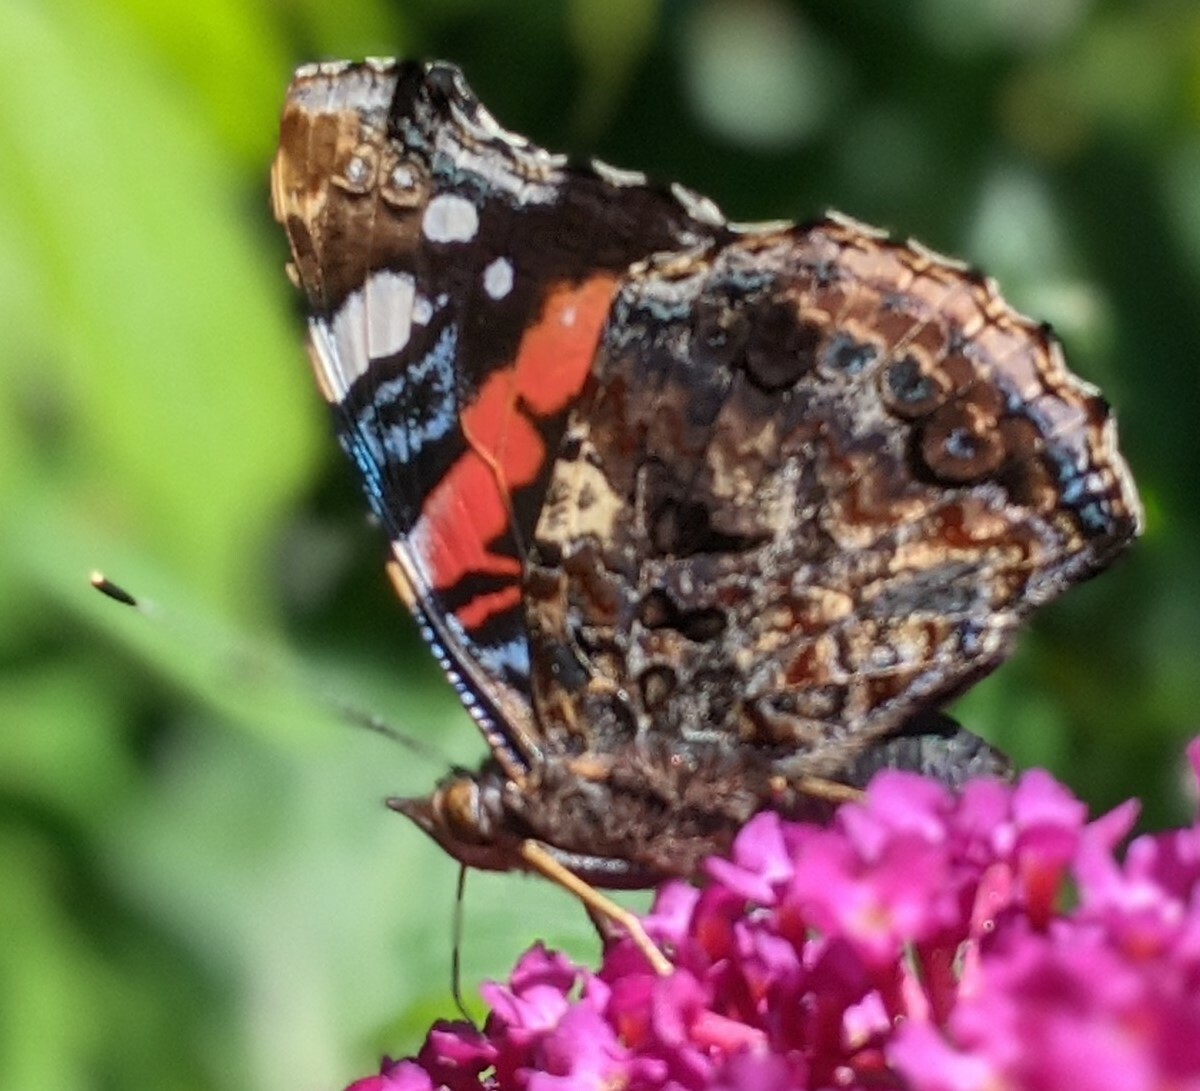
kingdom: Animalia
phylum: Arthropoda
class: Insecta
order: Lepidoptera
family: Nymphalidae
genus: Vanessa
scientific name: Vanessa atalanta
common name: Red admiral
